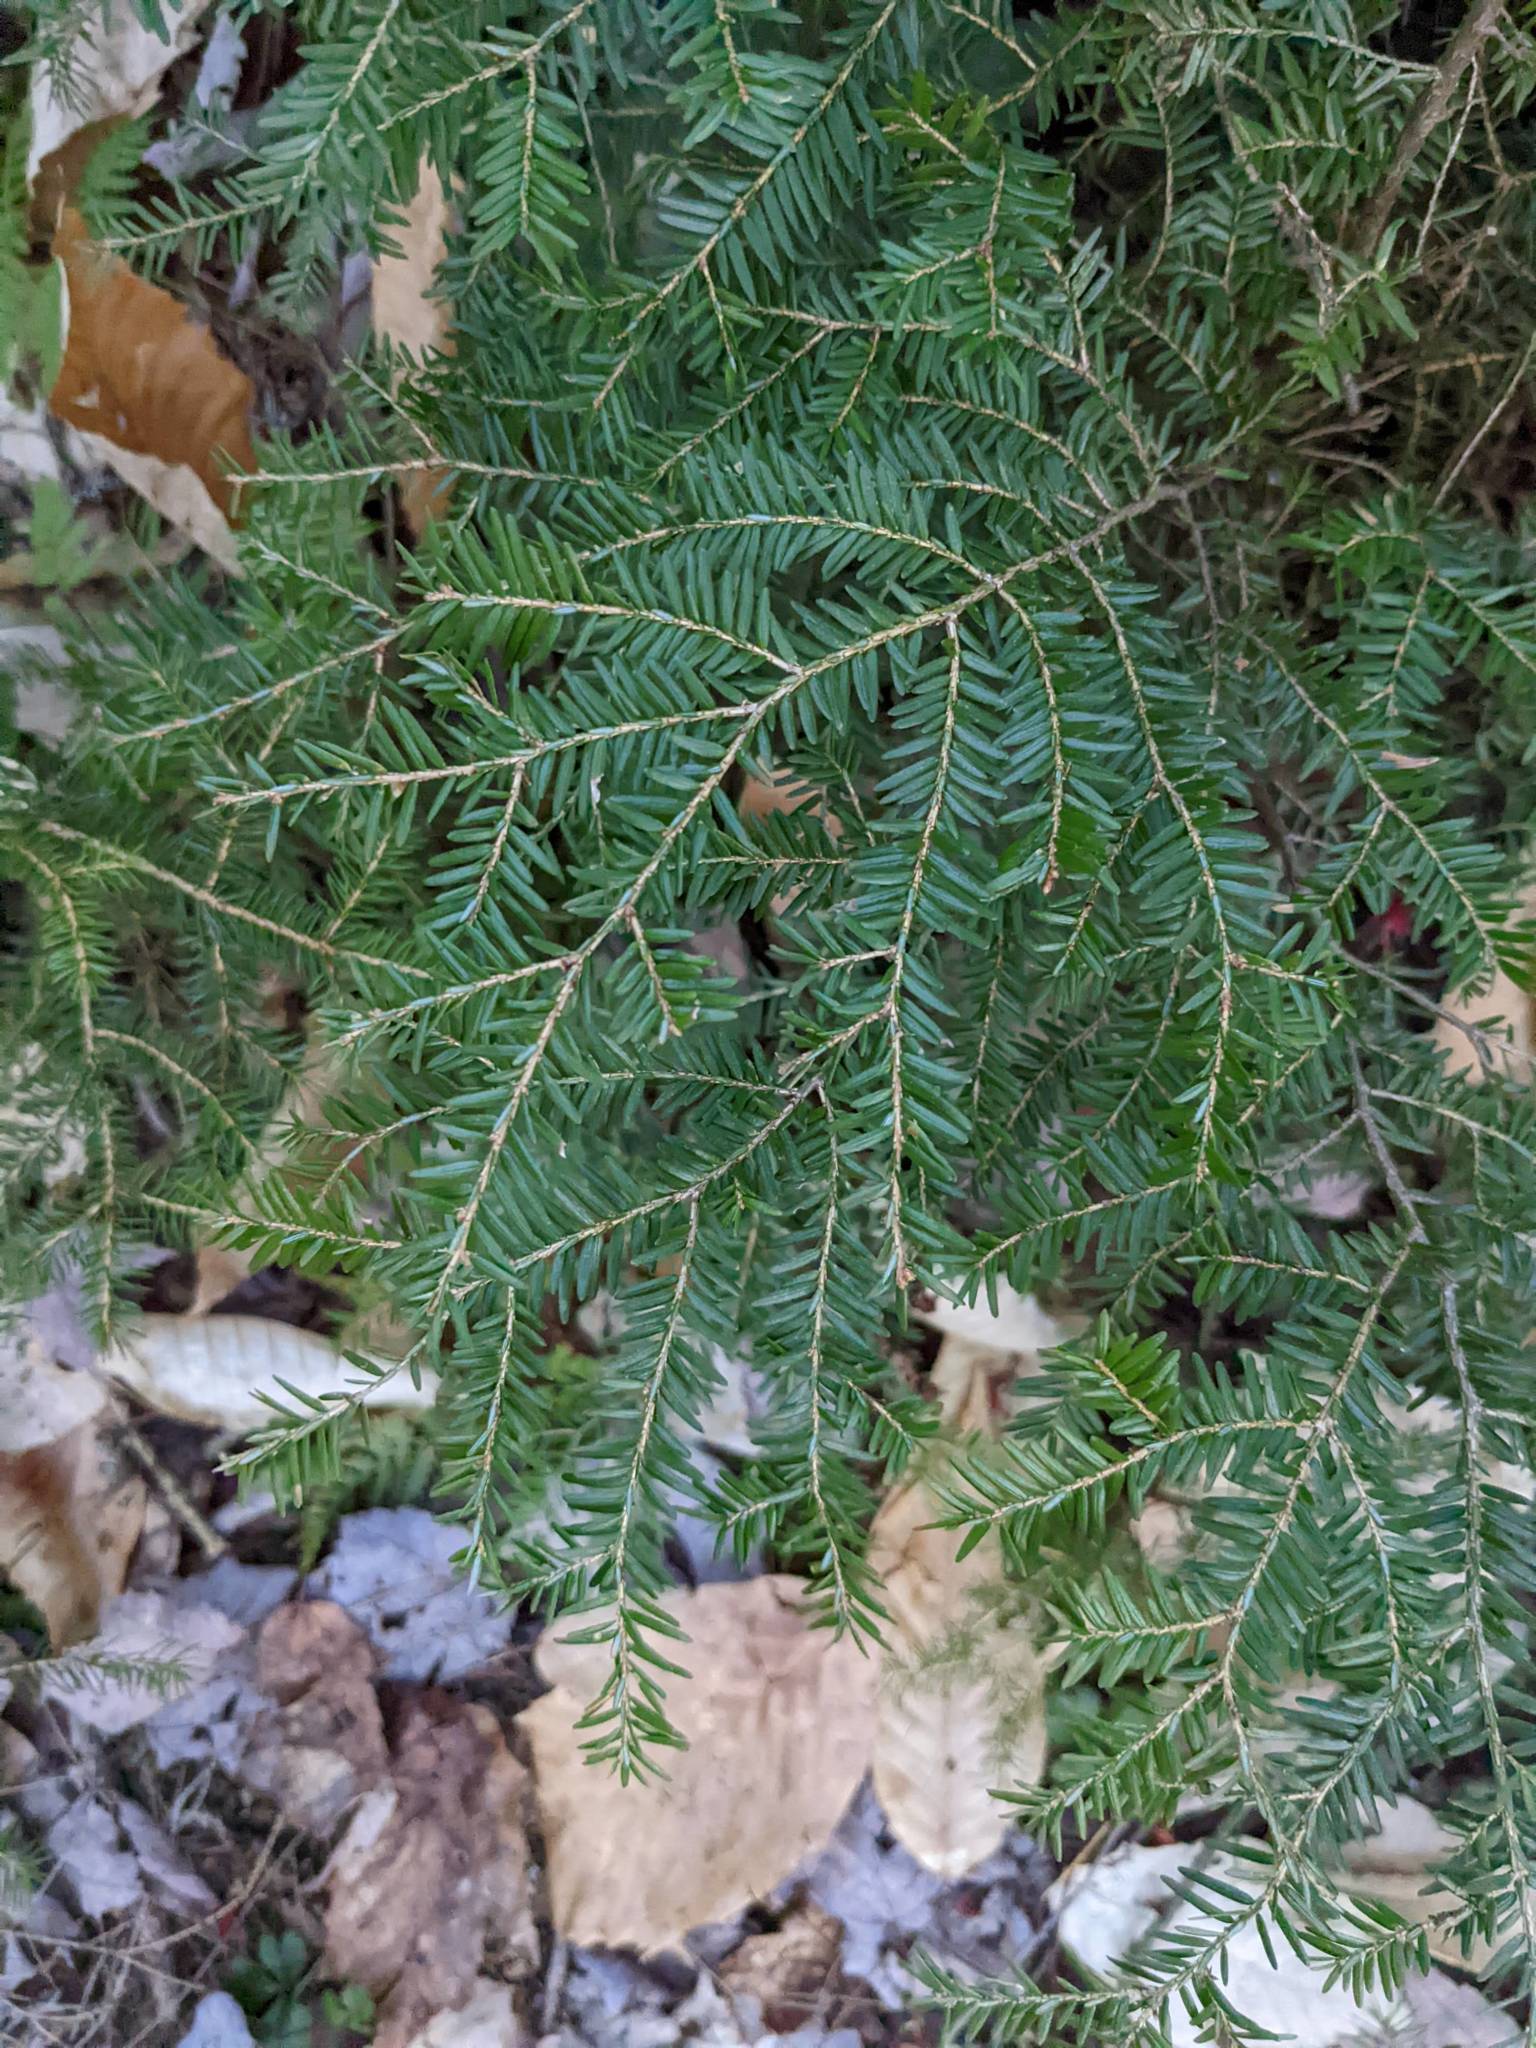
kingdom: Plantae
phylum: Tracheophyta
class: Pinopsida
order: Pinales
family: Pinaceae
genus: Tsuga
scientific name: Tsuga canadensis
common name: Eastern hemlock
